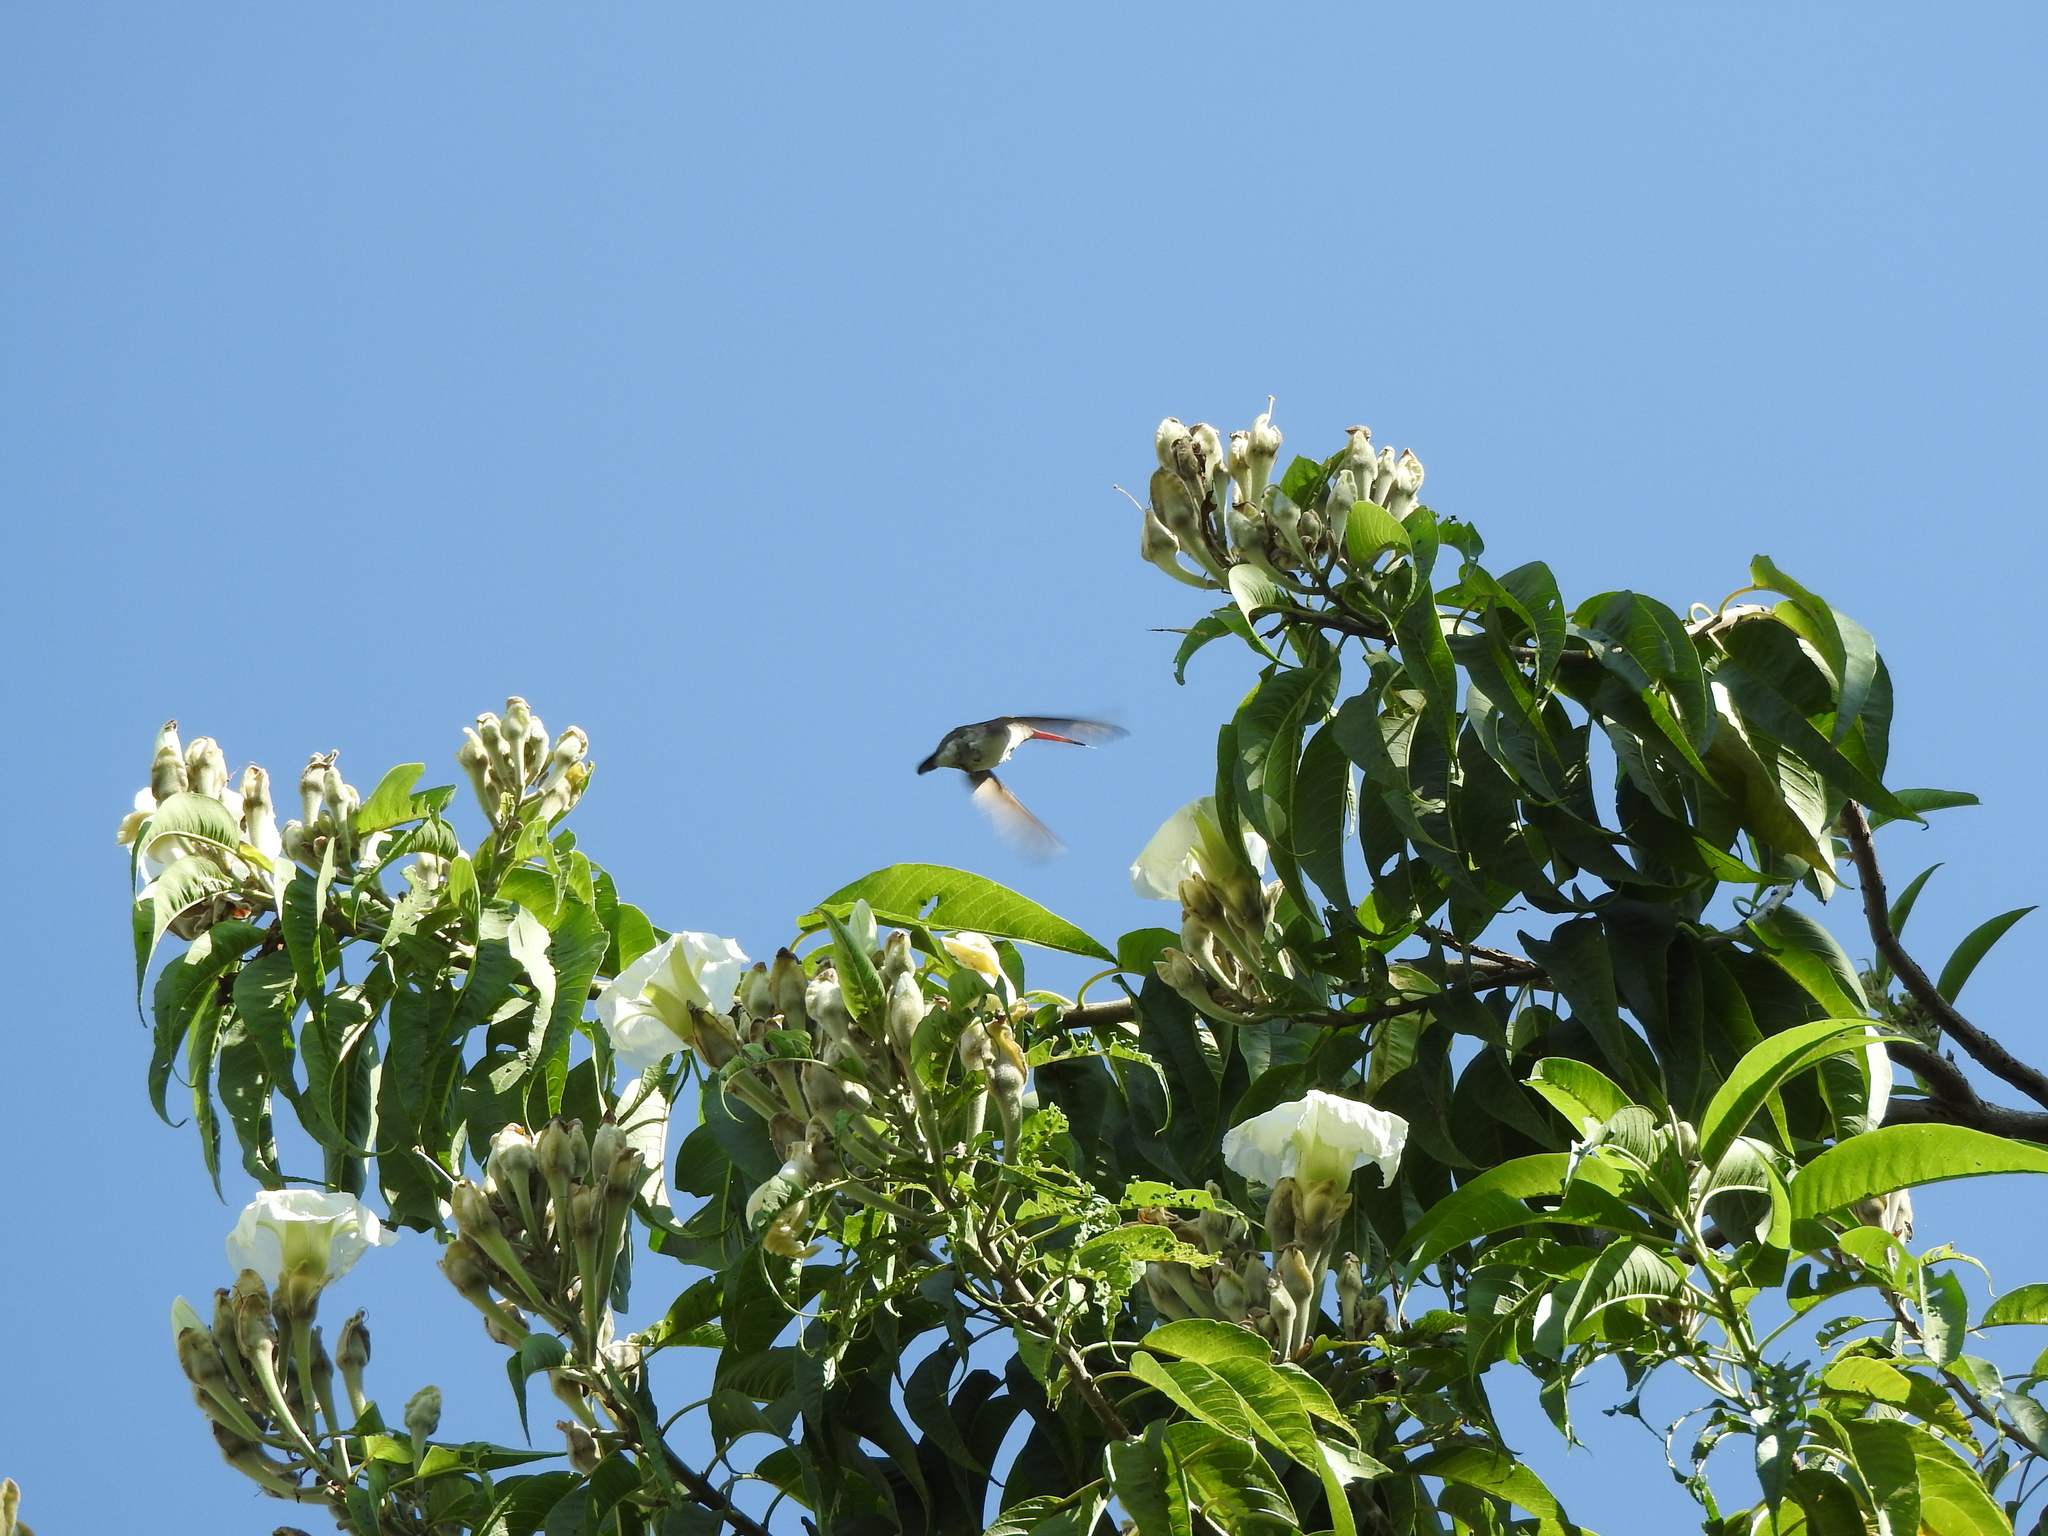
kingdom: Animalia
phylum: Chordata
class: Aves
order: Apodiformes
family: Trochilidae
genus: Leucolia
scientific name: Leucolia violiceps
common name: Violet-crowned hummingbird
